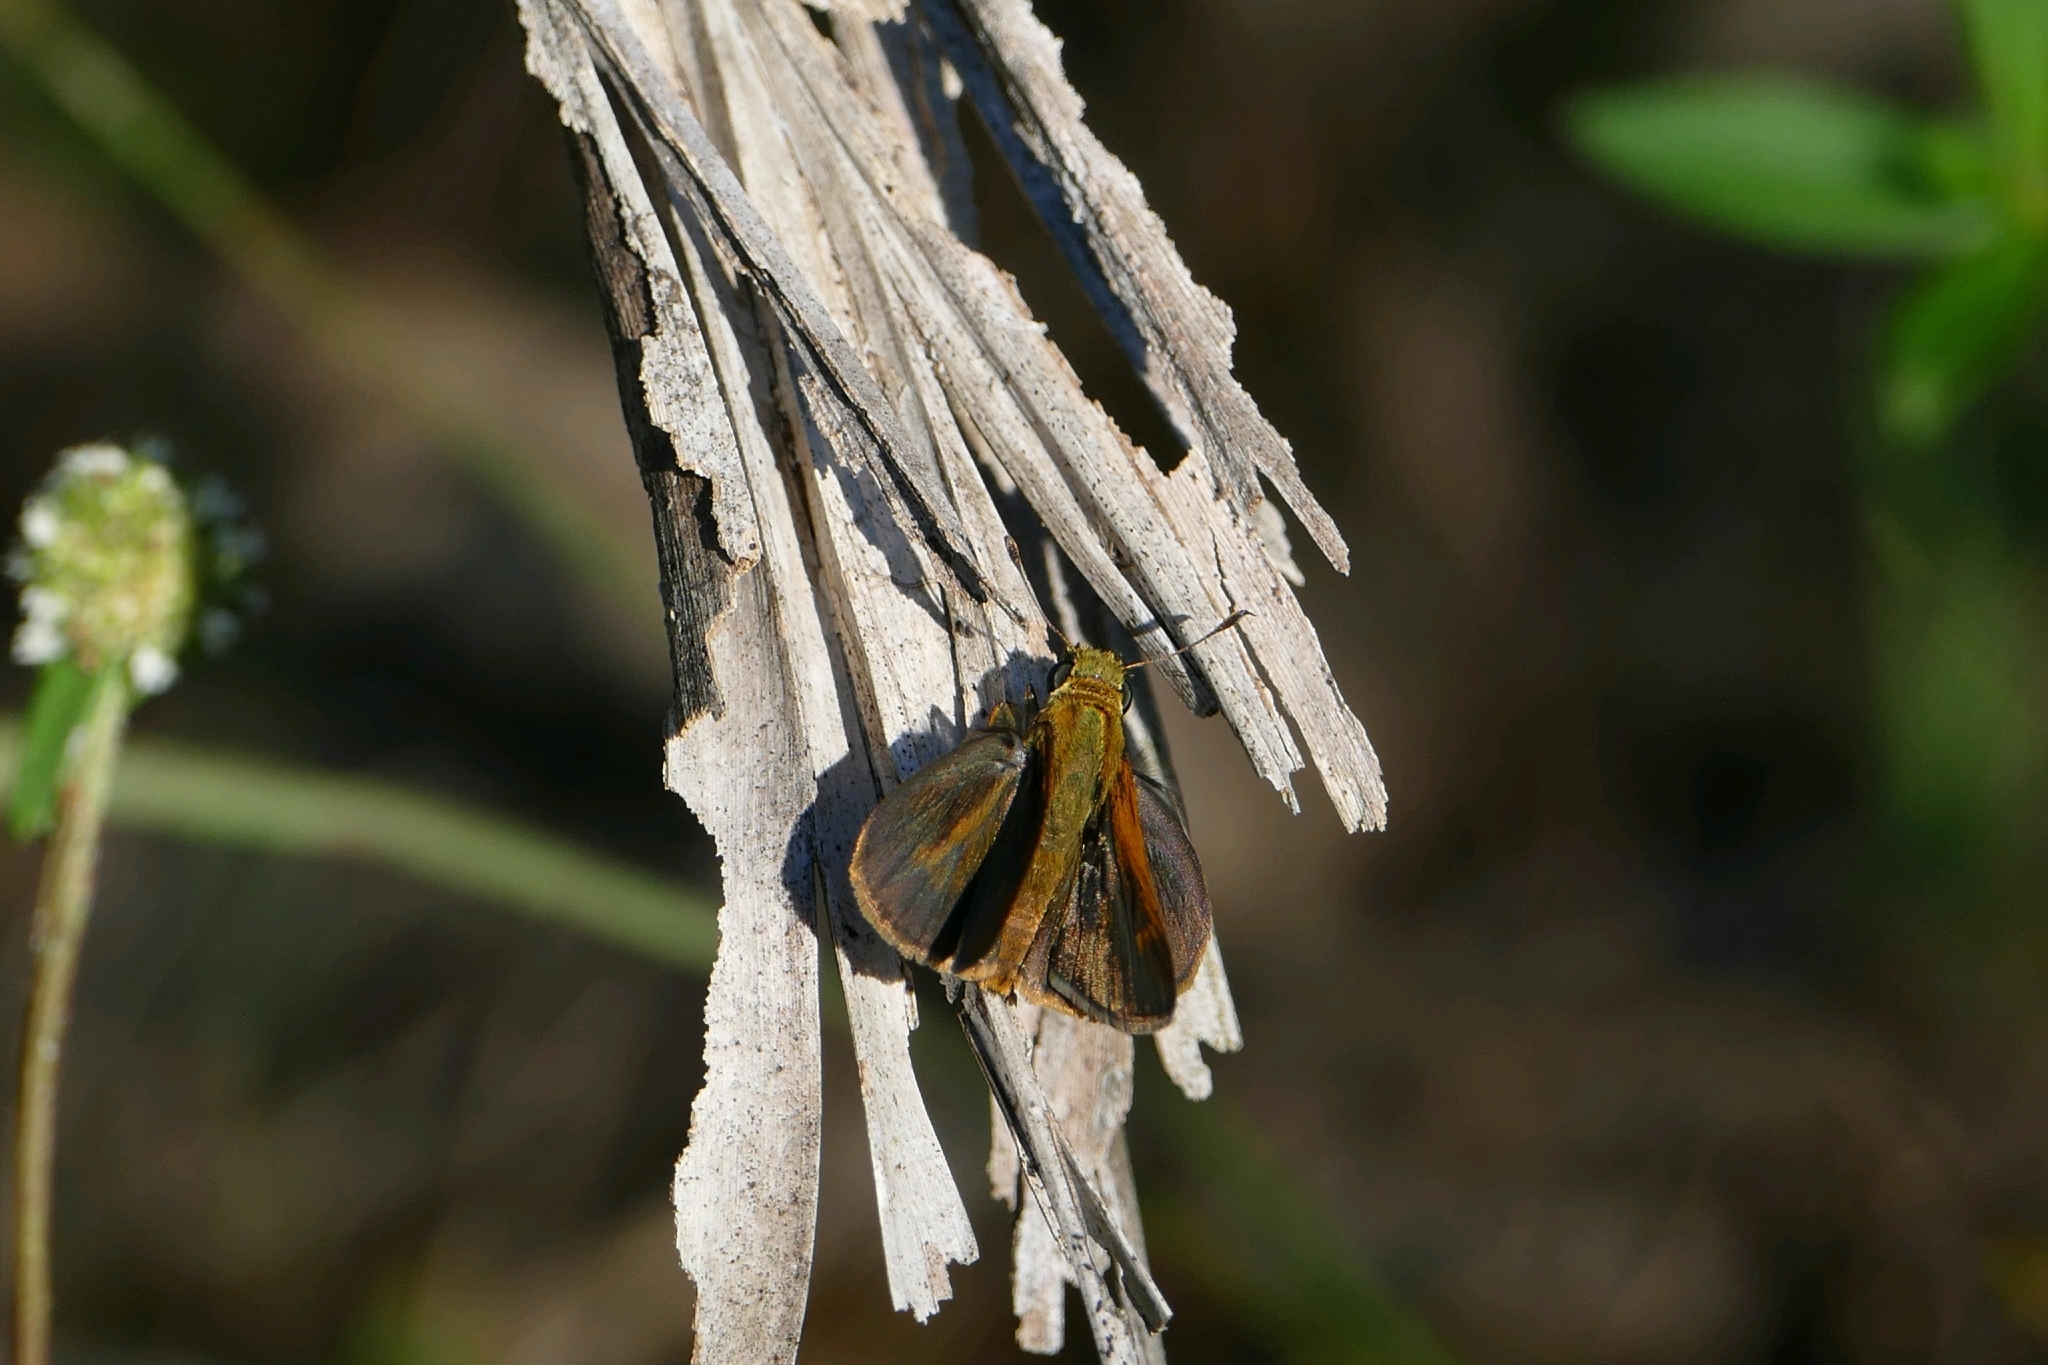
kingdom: Animalia
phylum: Arthropoda
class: Insecta
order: Lepidoptera
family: Hesperiidae
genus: Polites
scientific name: Polites otho
